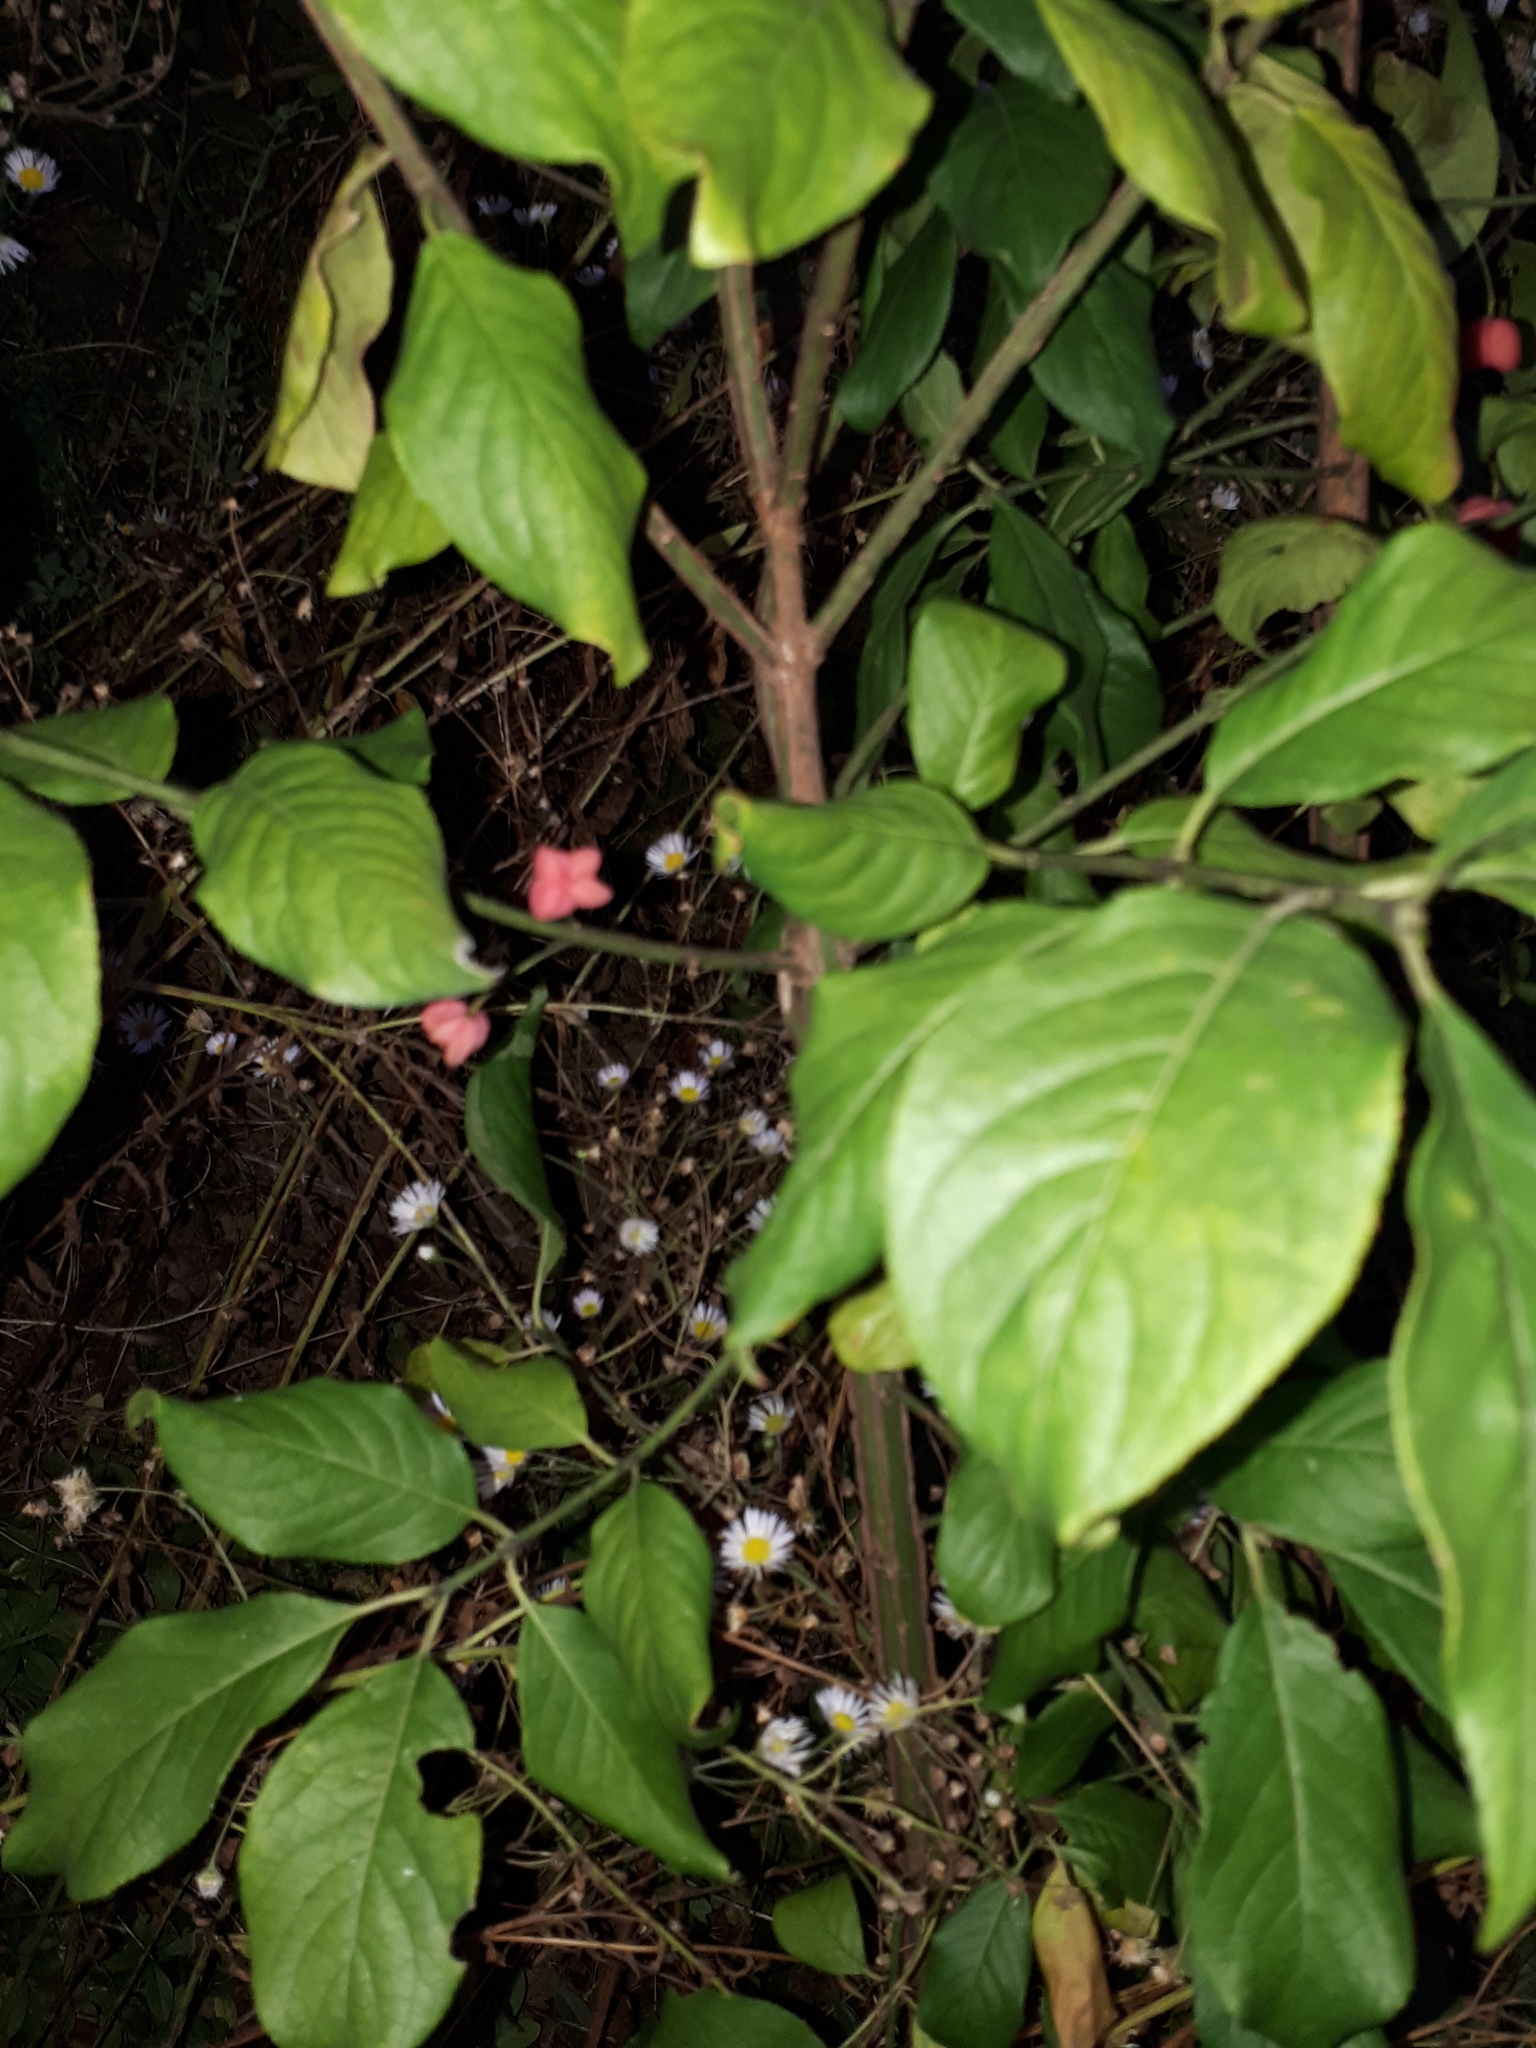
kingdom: Plantae
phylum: Tracheophyta
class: Magnoliopsida
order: Celastrales
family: Celastraceae
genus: Euonymus
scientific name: Euonymus europaeus
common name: Spindle
